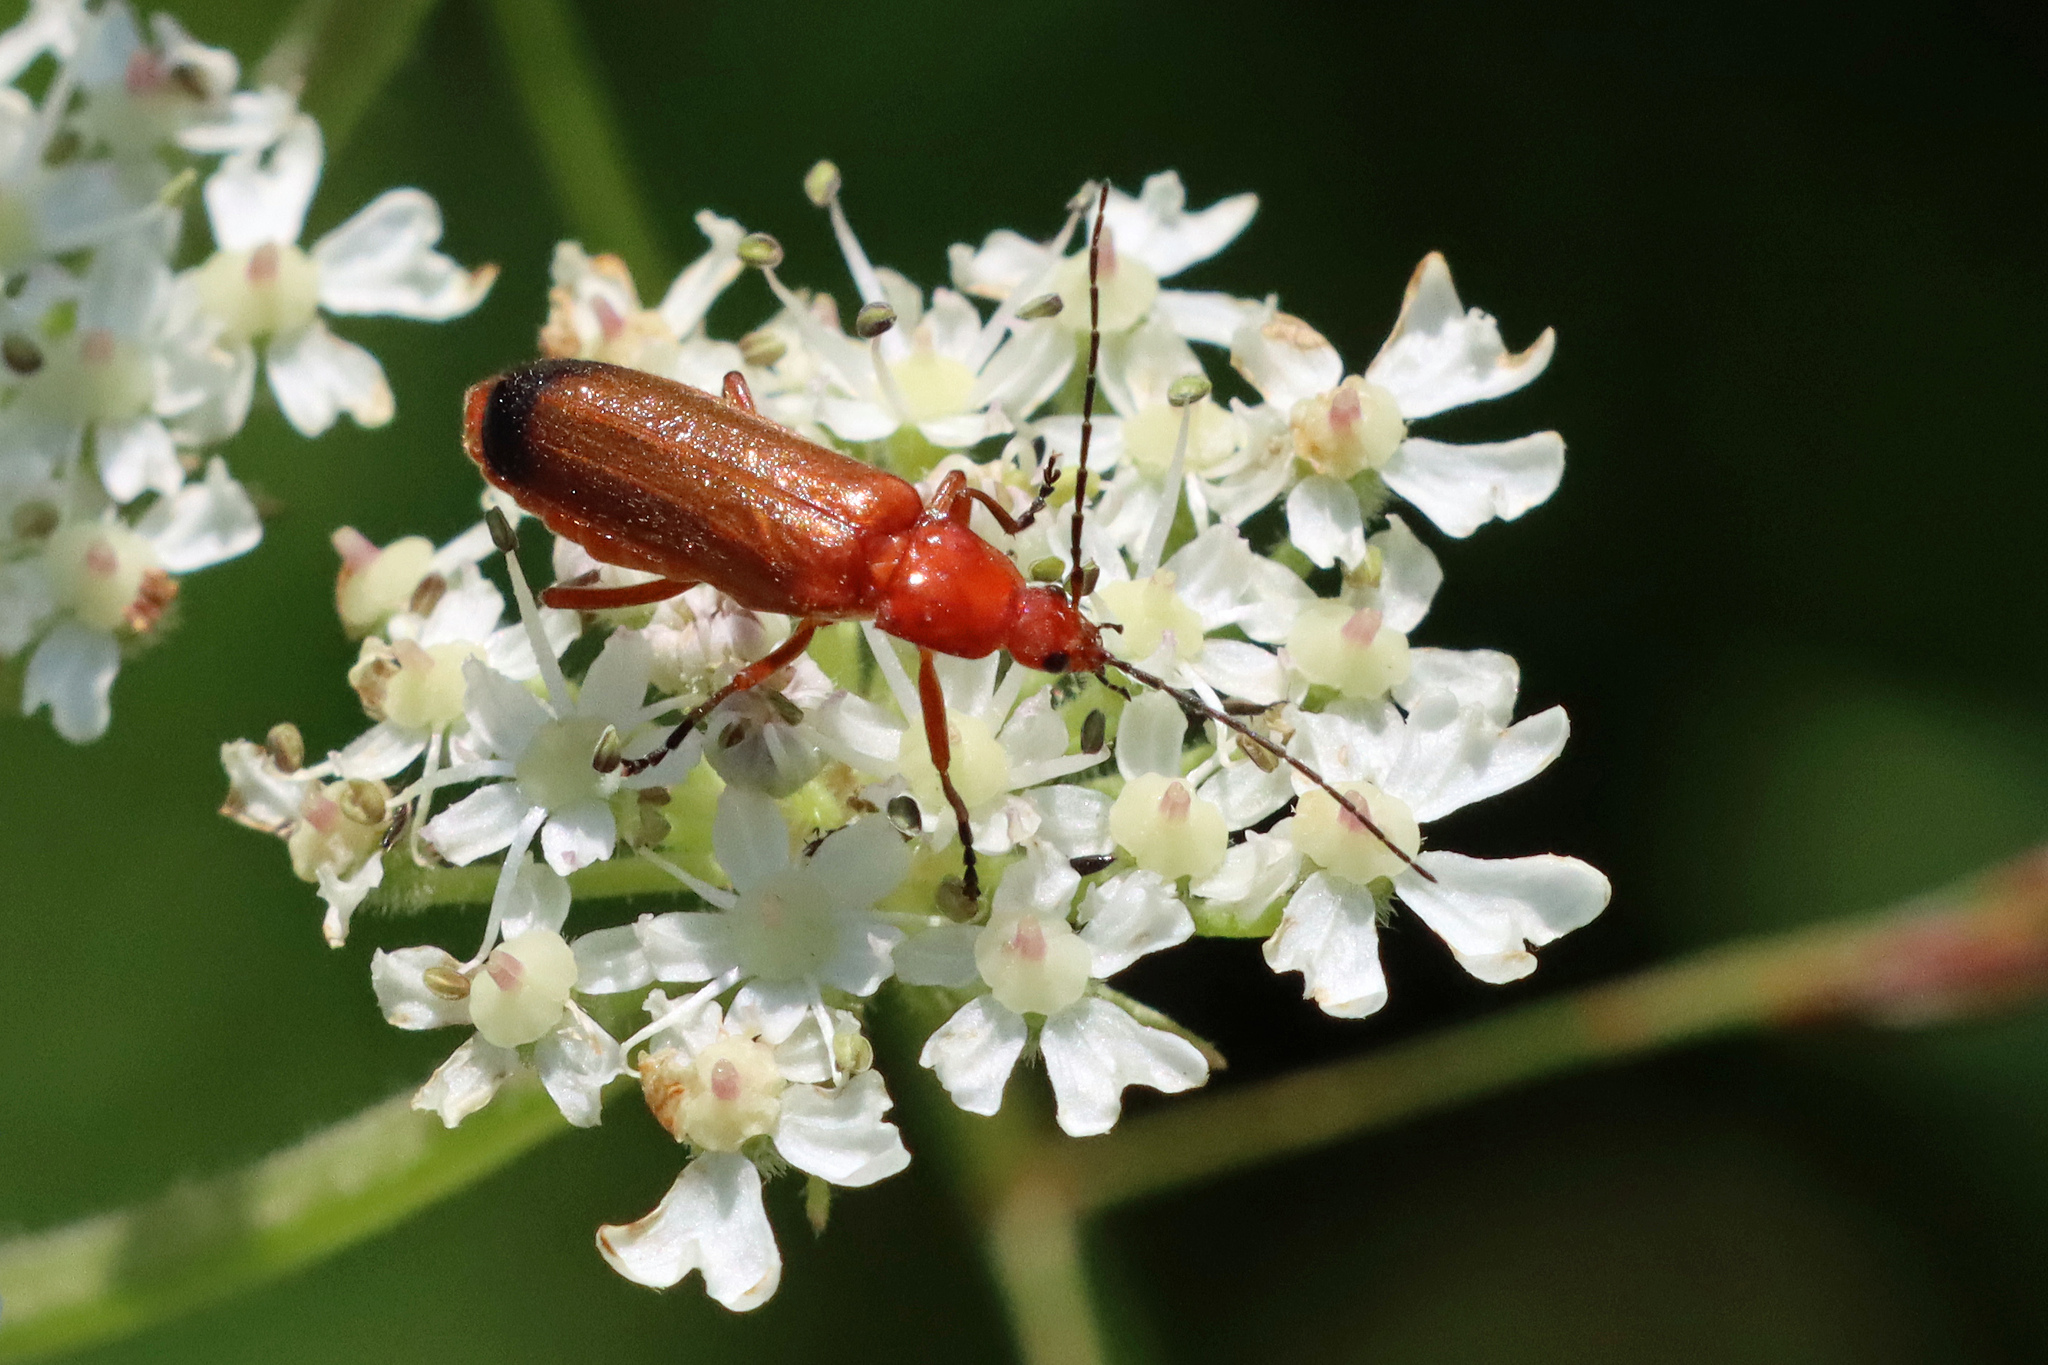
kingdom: Animalia
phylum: Arthropoda
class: Insecta
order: Coleoptera
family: Cantharidae
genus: Rhagonycha
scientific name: Rhagonycha fulva
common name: Common red soldier beetle
